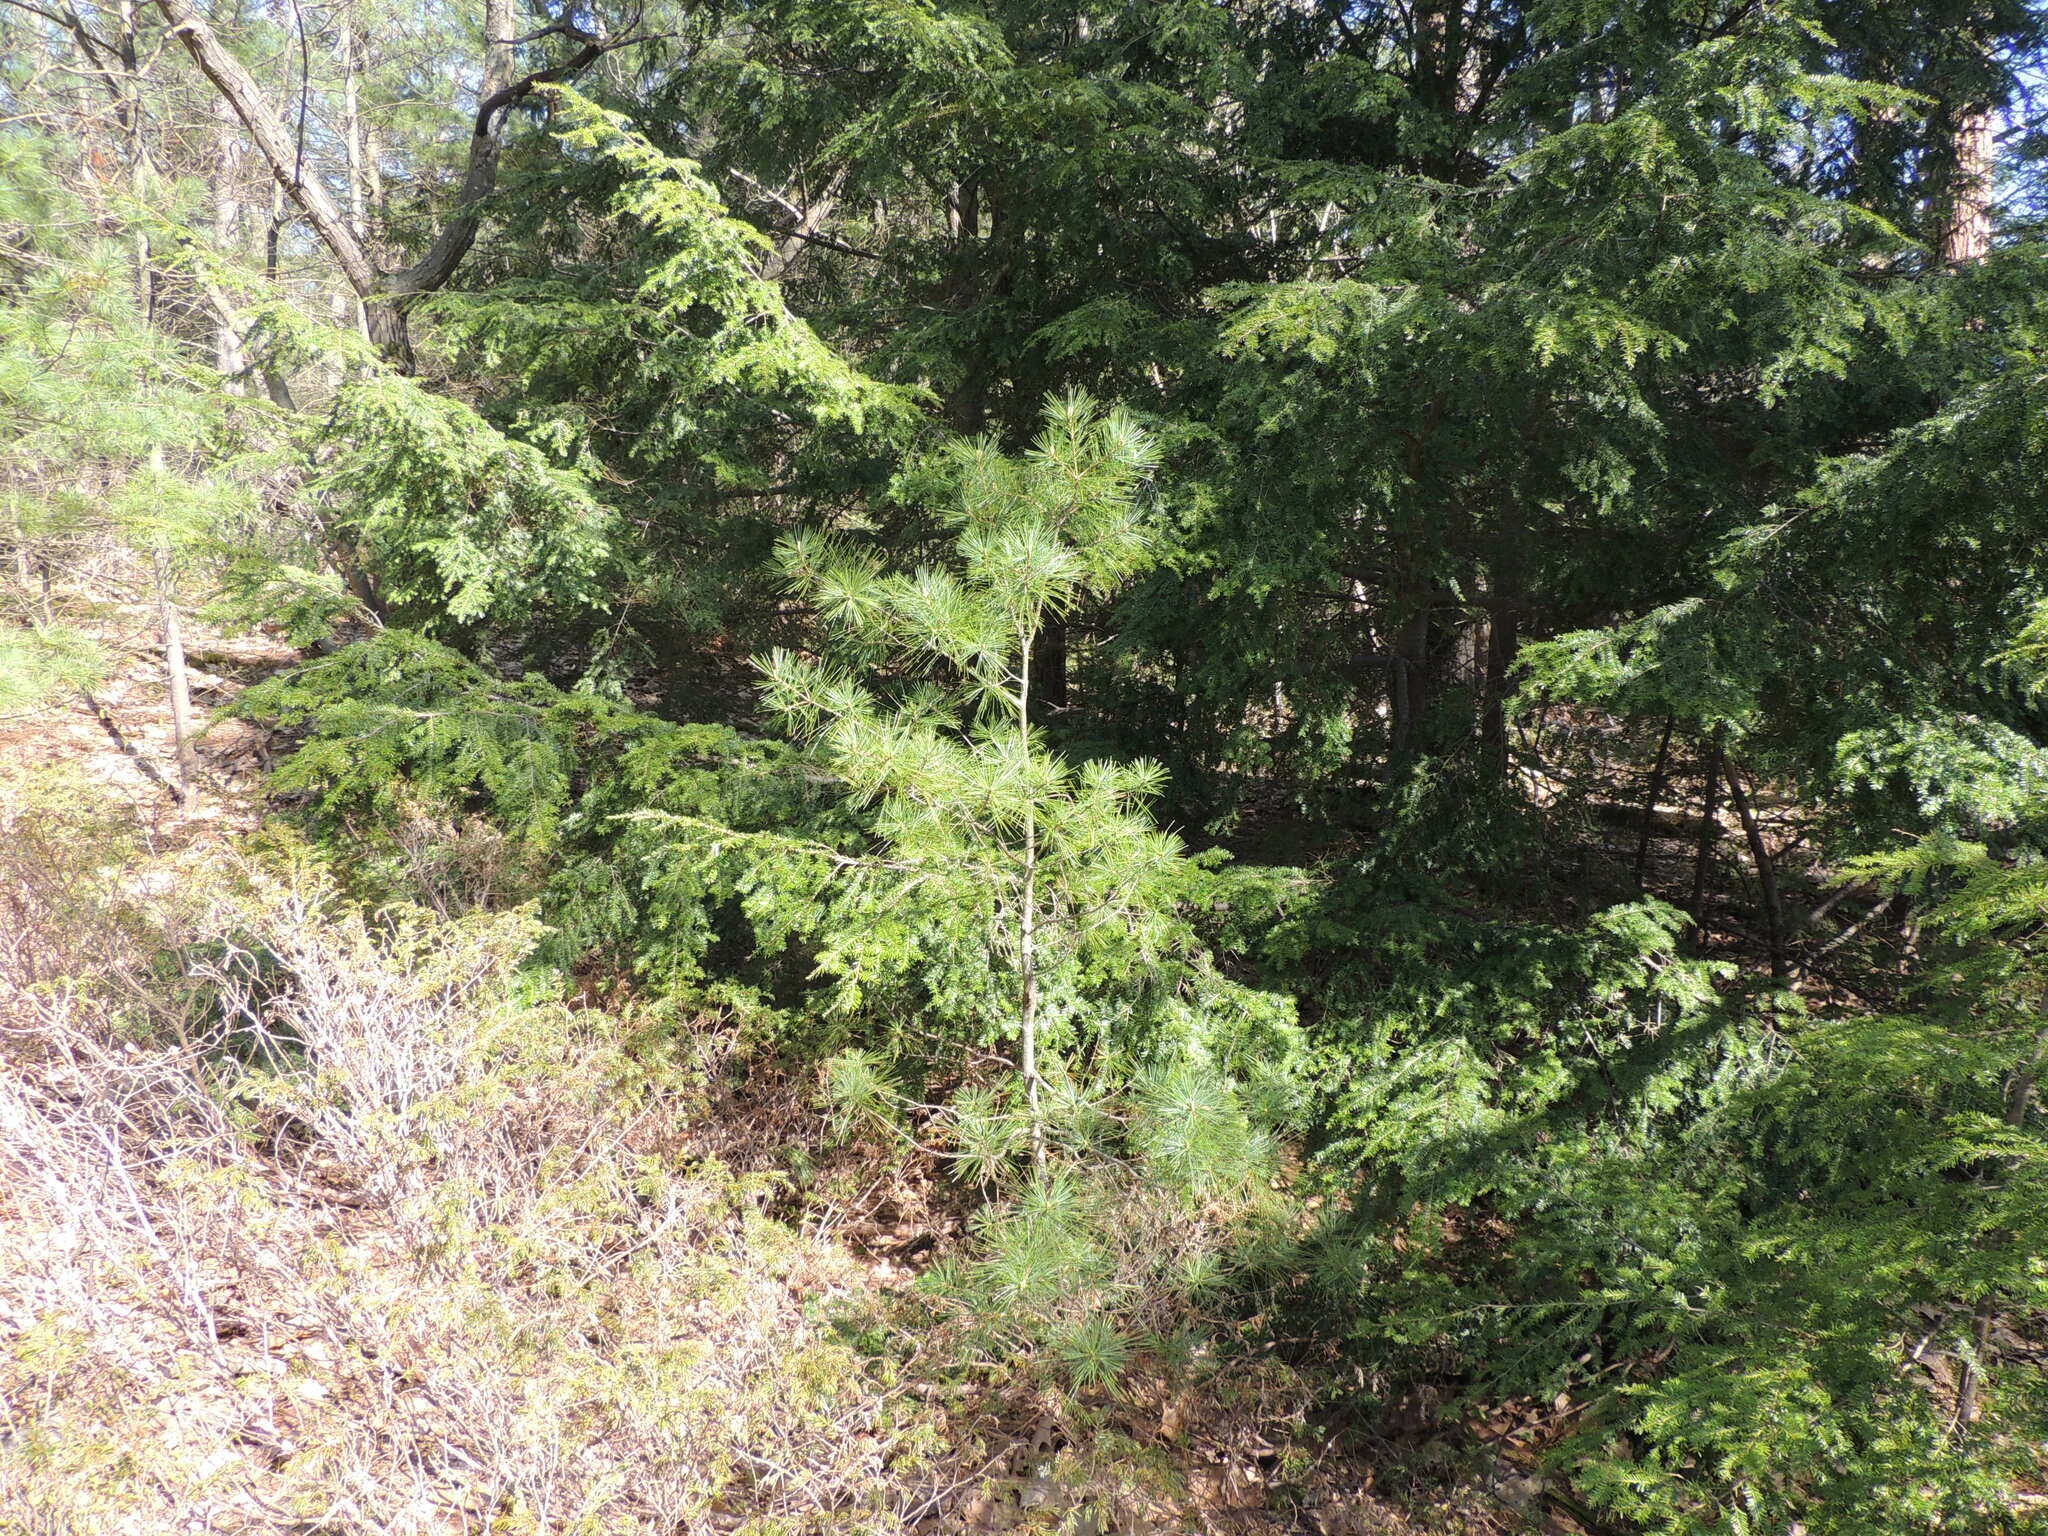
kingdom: Plantae
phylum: Tracheophyta
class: Pinopsida
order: Pinales
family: Pinaceae
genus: Pinus
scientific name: Pinus strobus
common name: Weymouth pine
